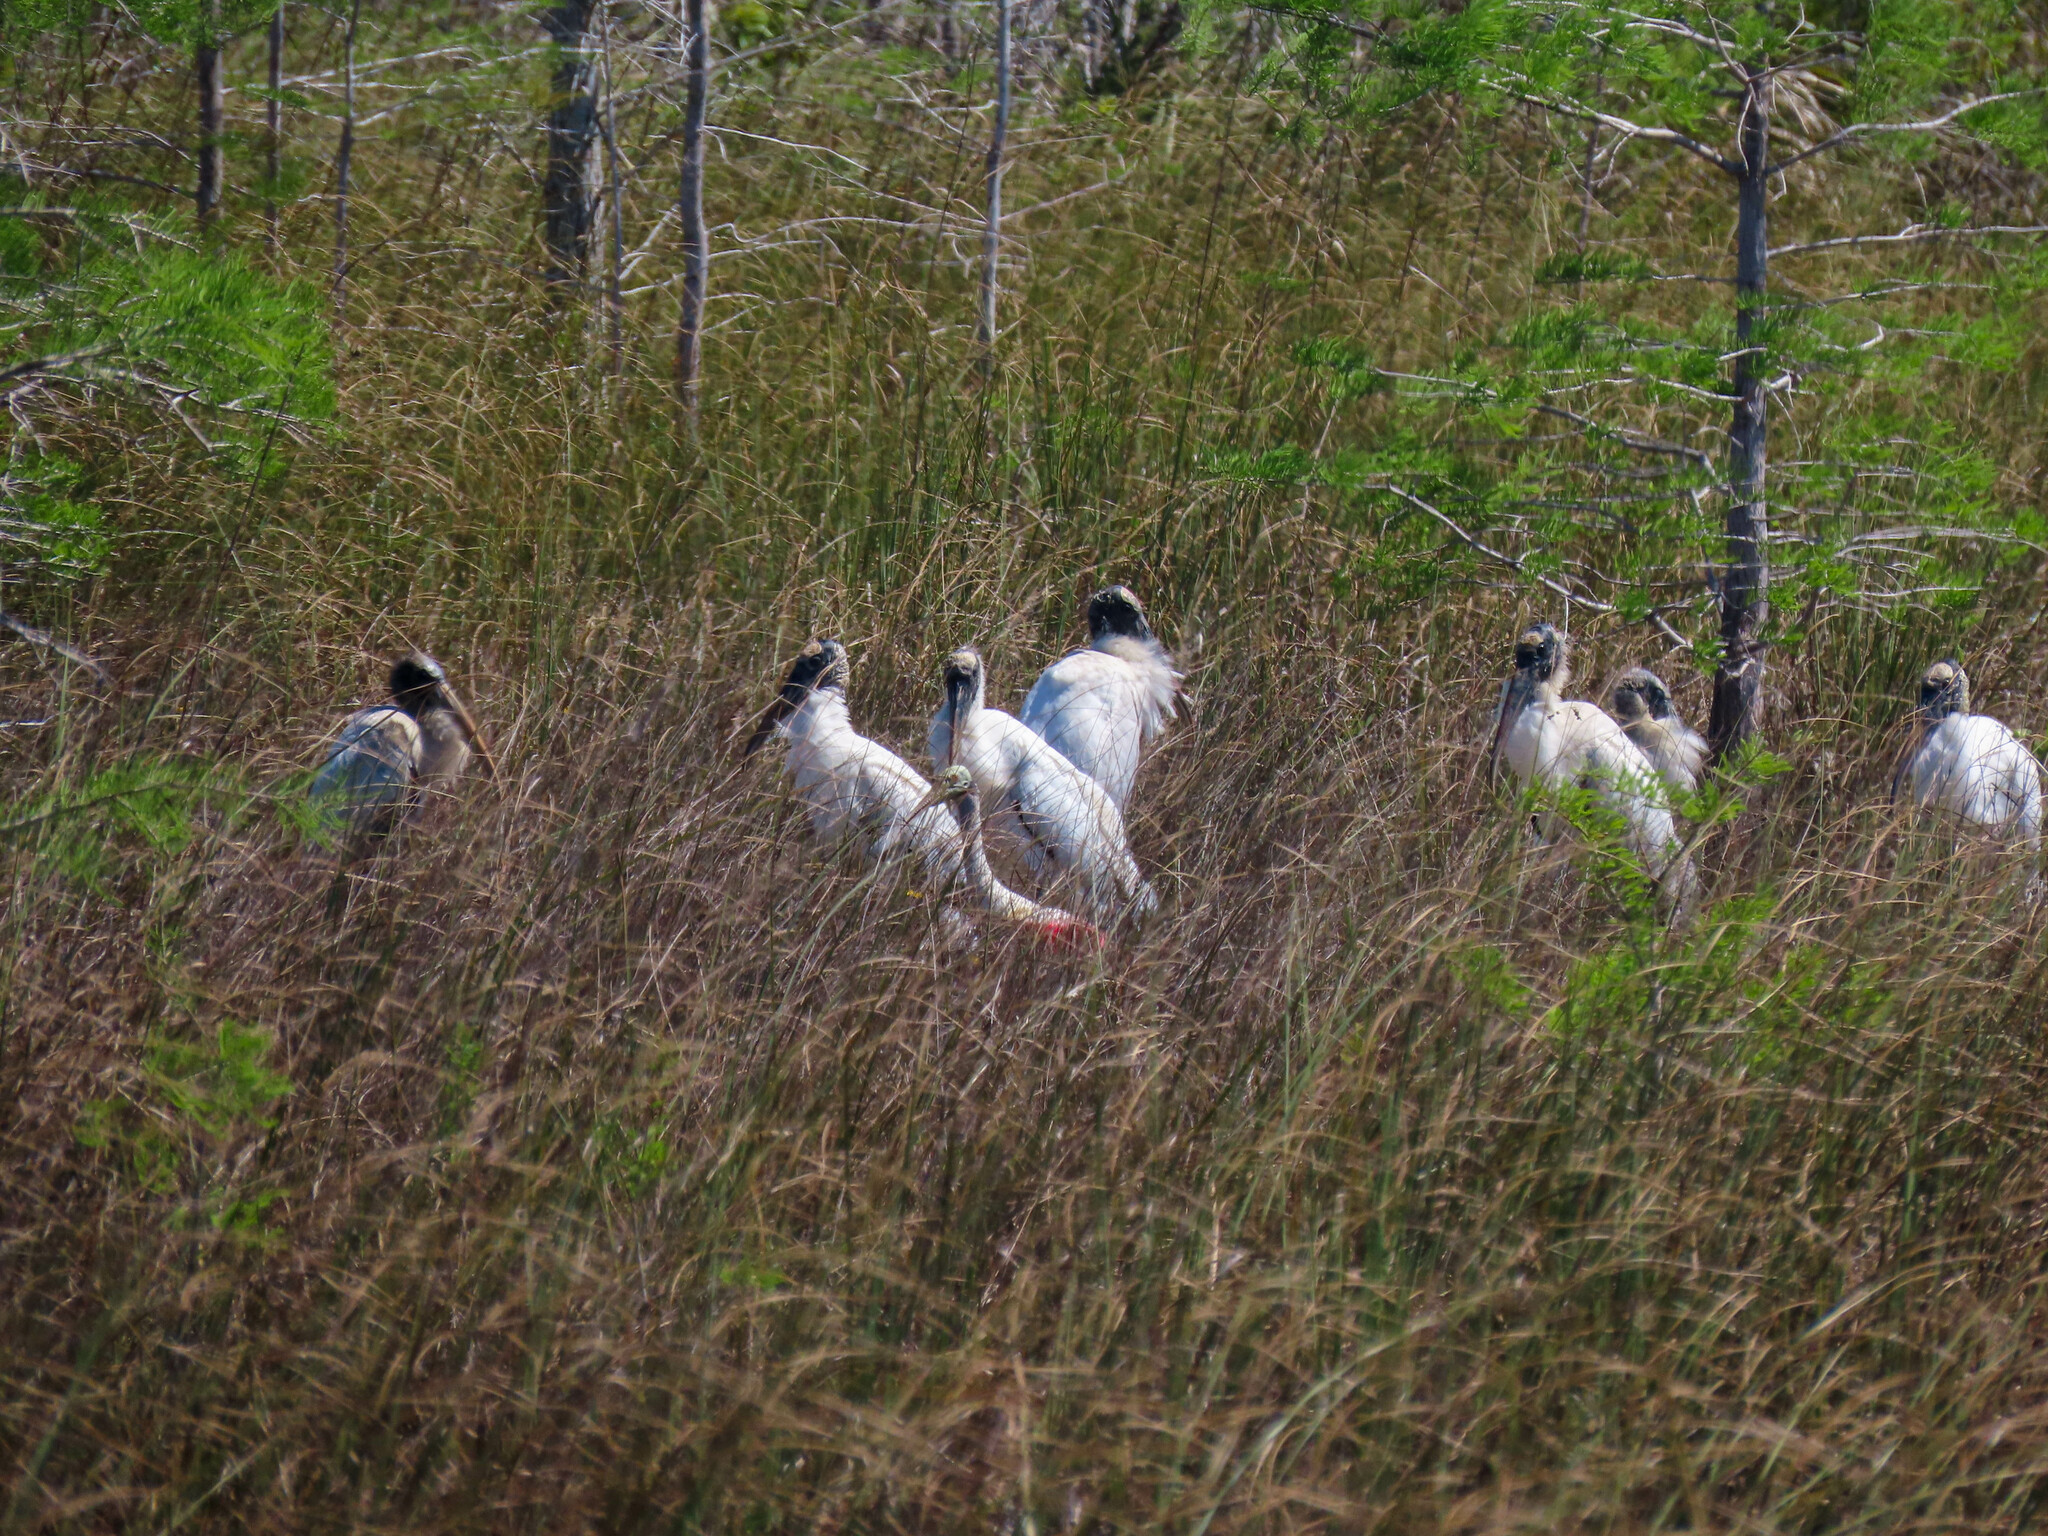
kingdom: Animalia
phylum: Chordata
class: Aves
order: Ciconiiformes
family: Ciconiidae
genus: Mycteria
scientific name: Mycteria americana
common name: Wood stork
